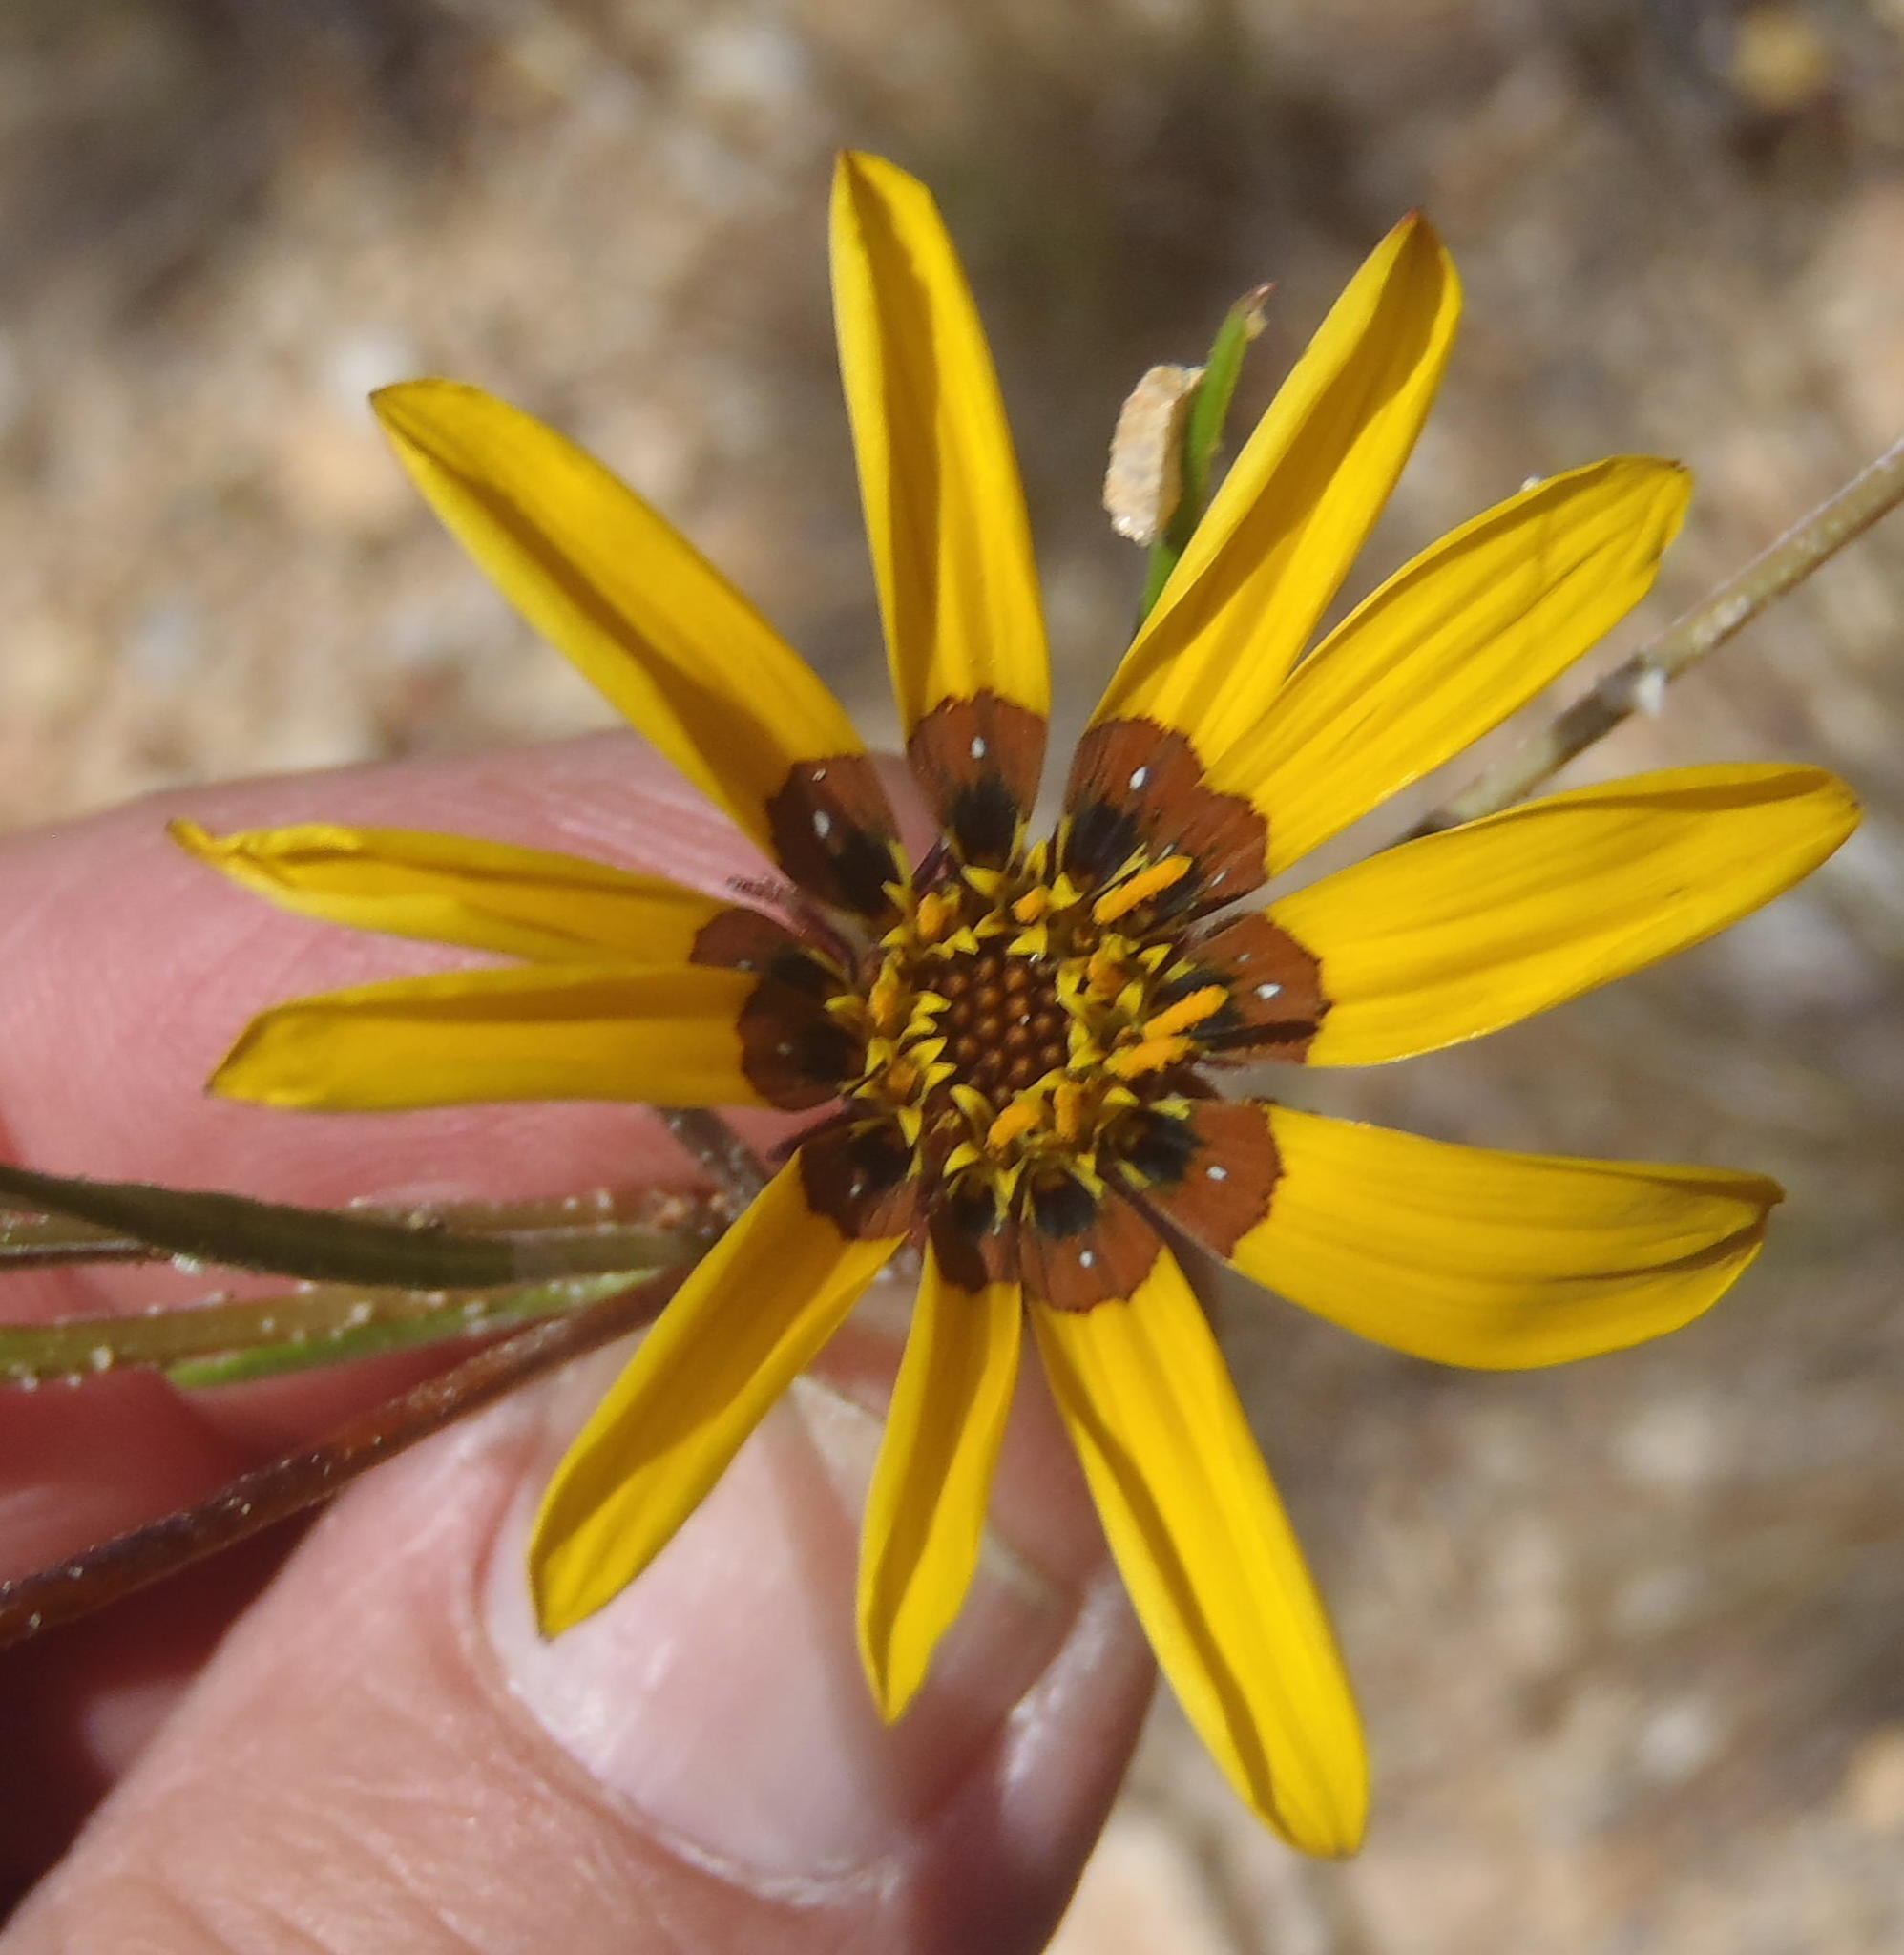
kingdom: Plantae
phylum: Tracheophyta
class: Magnoliopsida
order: Asterales
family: Asteraceae
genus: Gazania
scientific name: Gazania krebsiana
